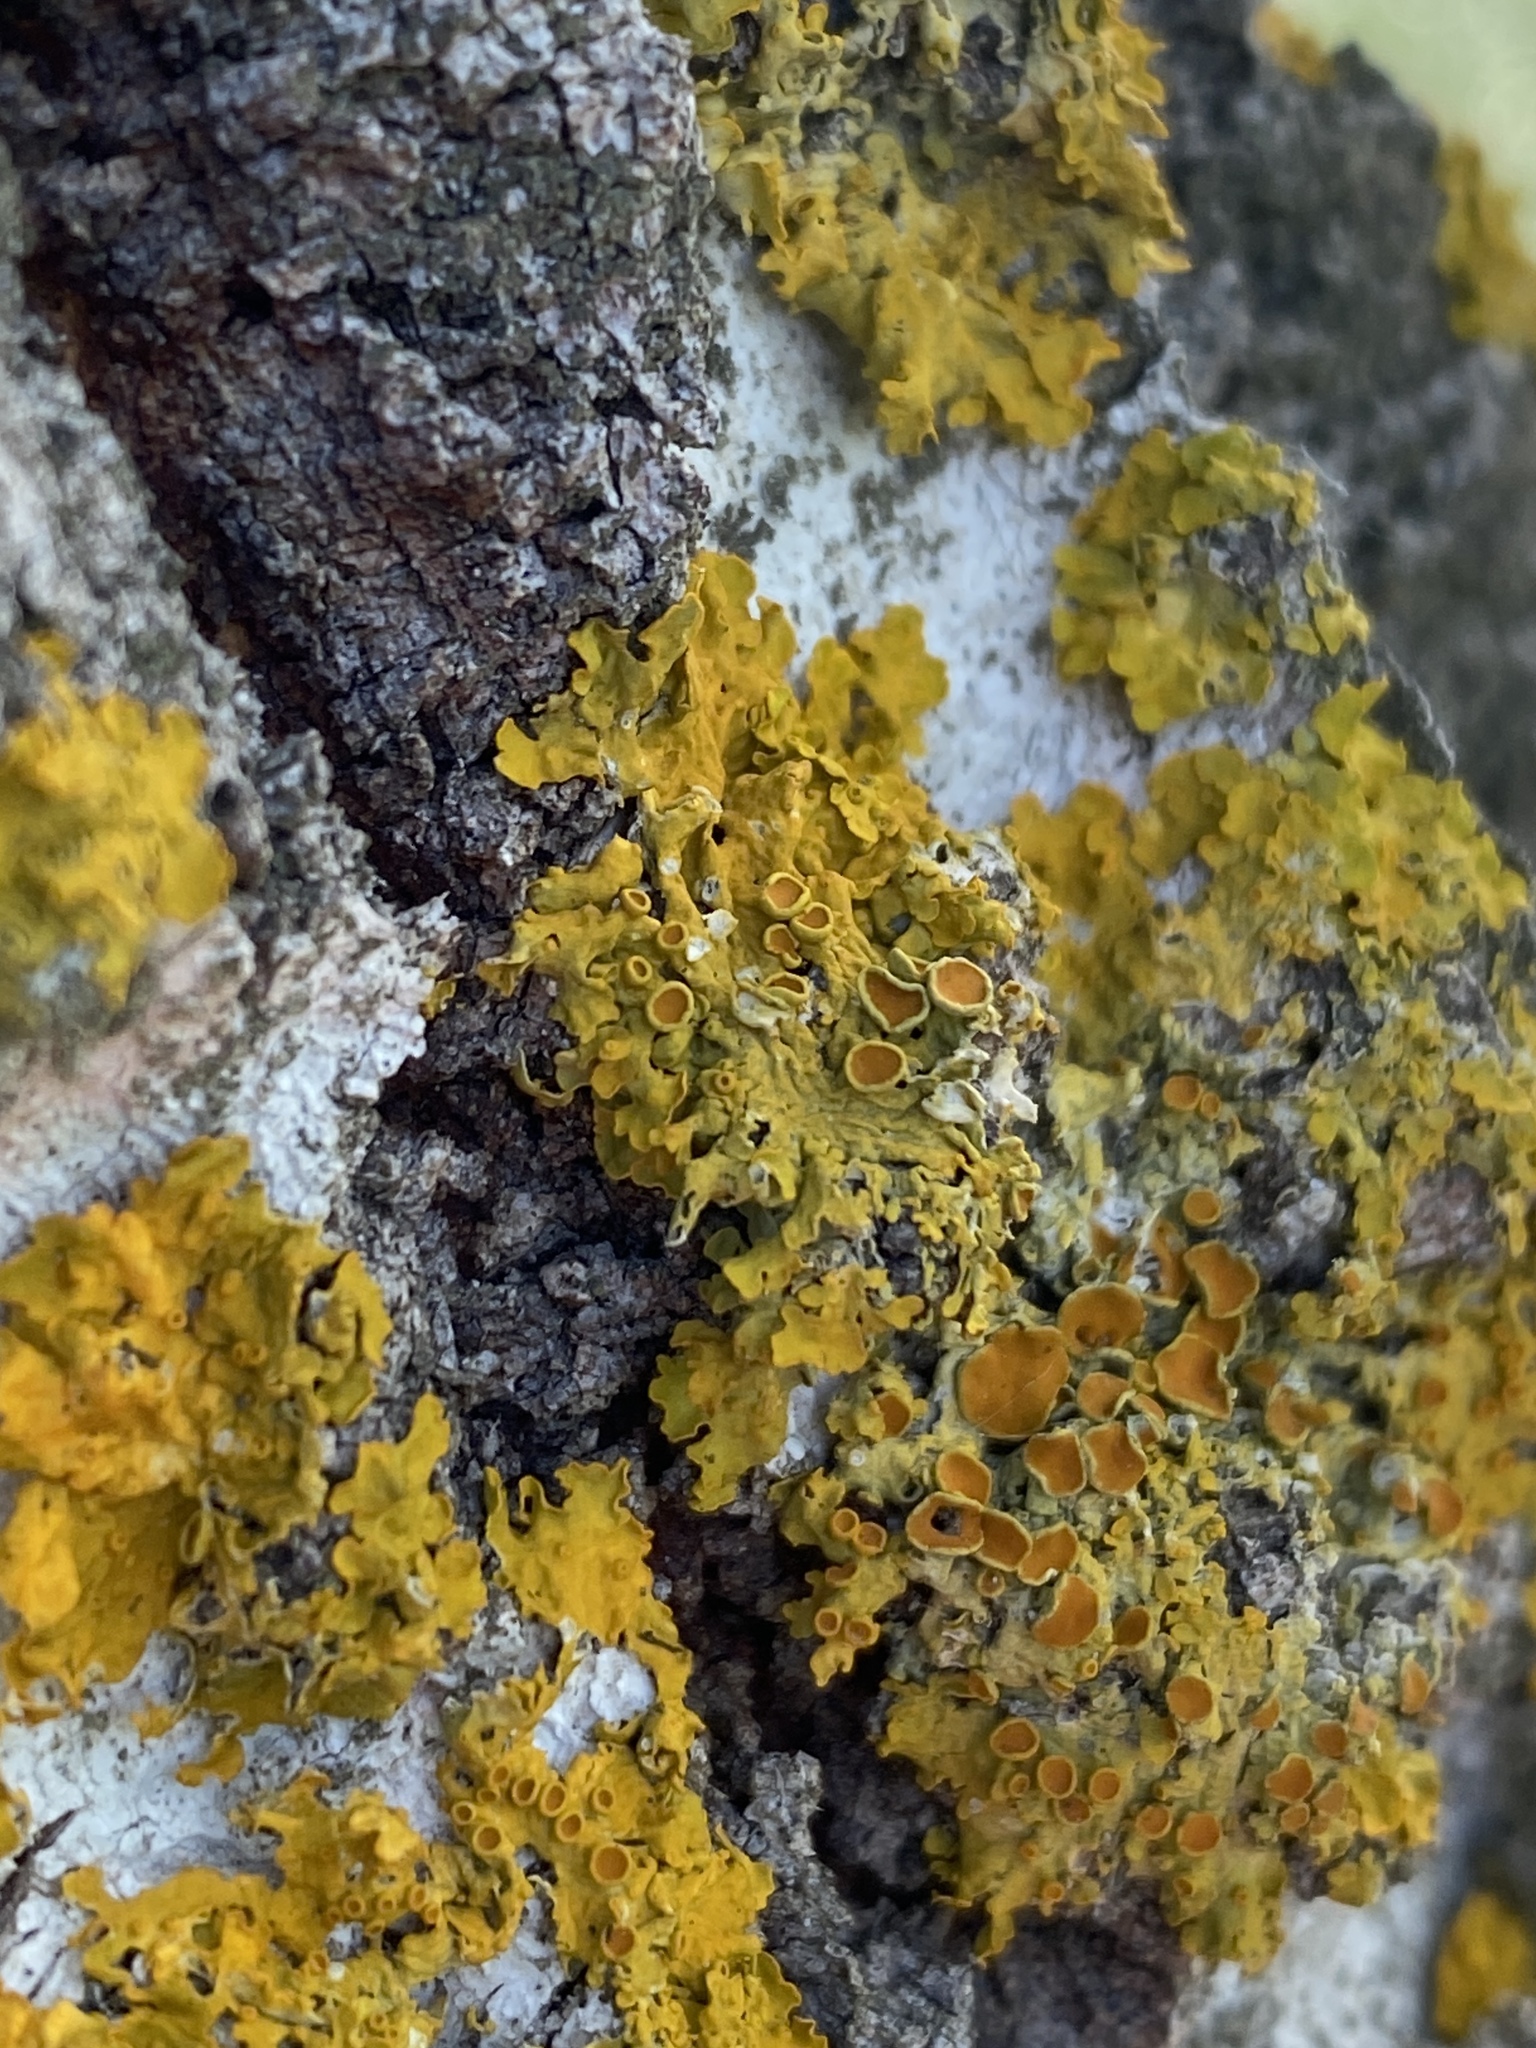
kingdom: Fungi
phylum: Ascomycota
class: Lecanoromycetes
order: Teloschistales
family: Teloschistaceae
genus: Xanthoria
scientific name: Xanthoria parietina
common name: Common orange lichen
